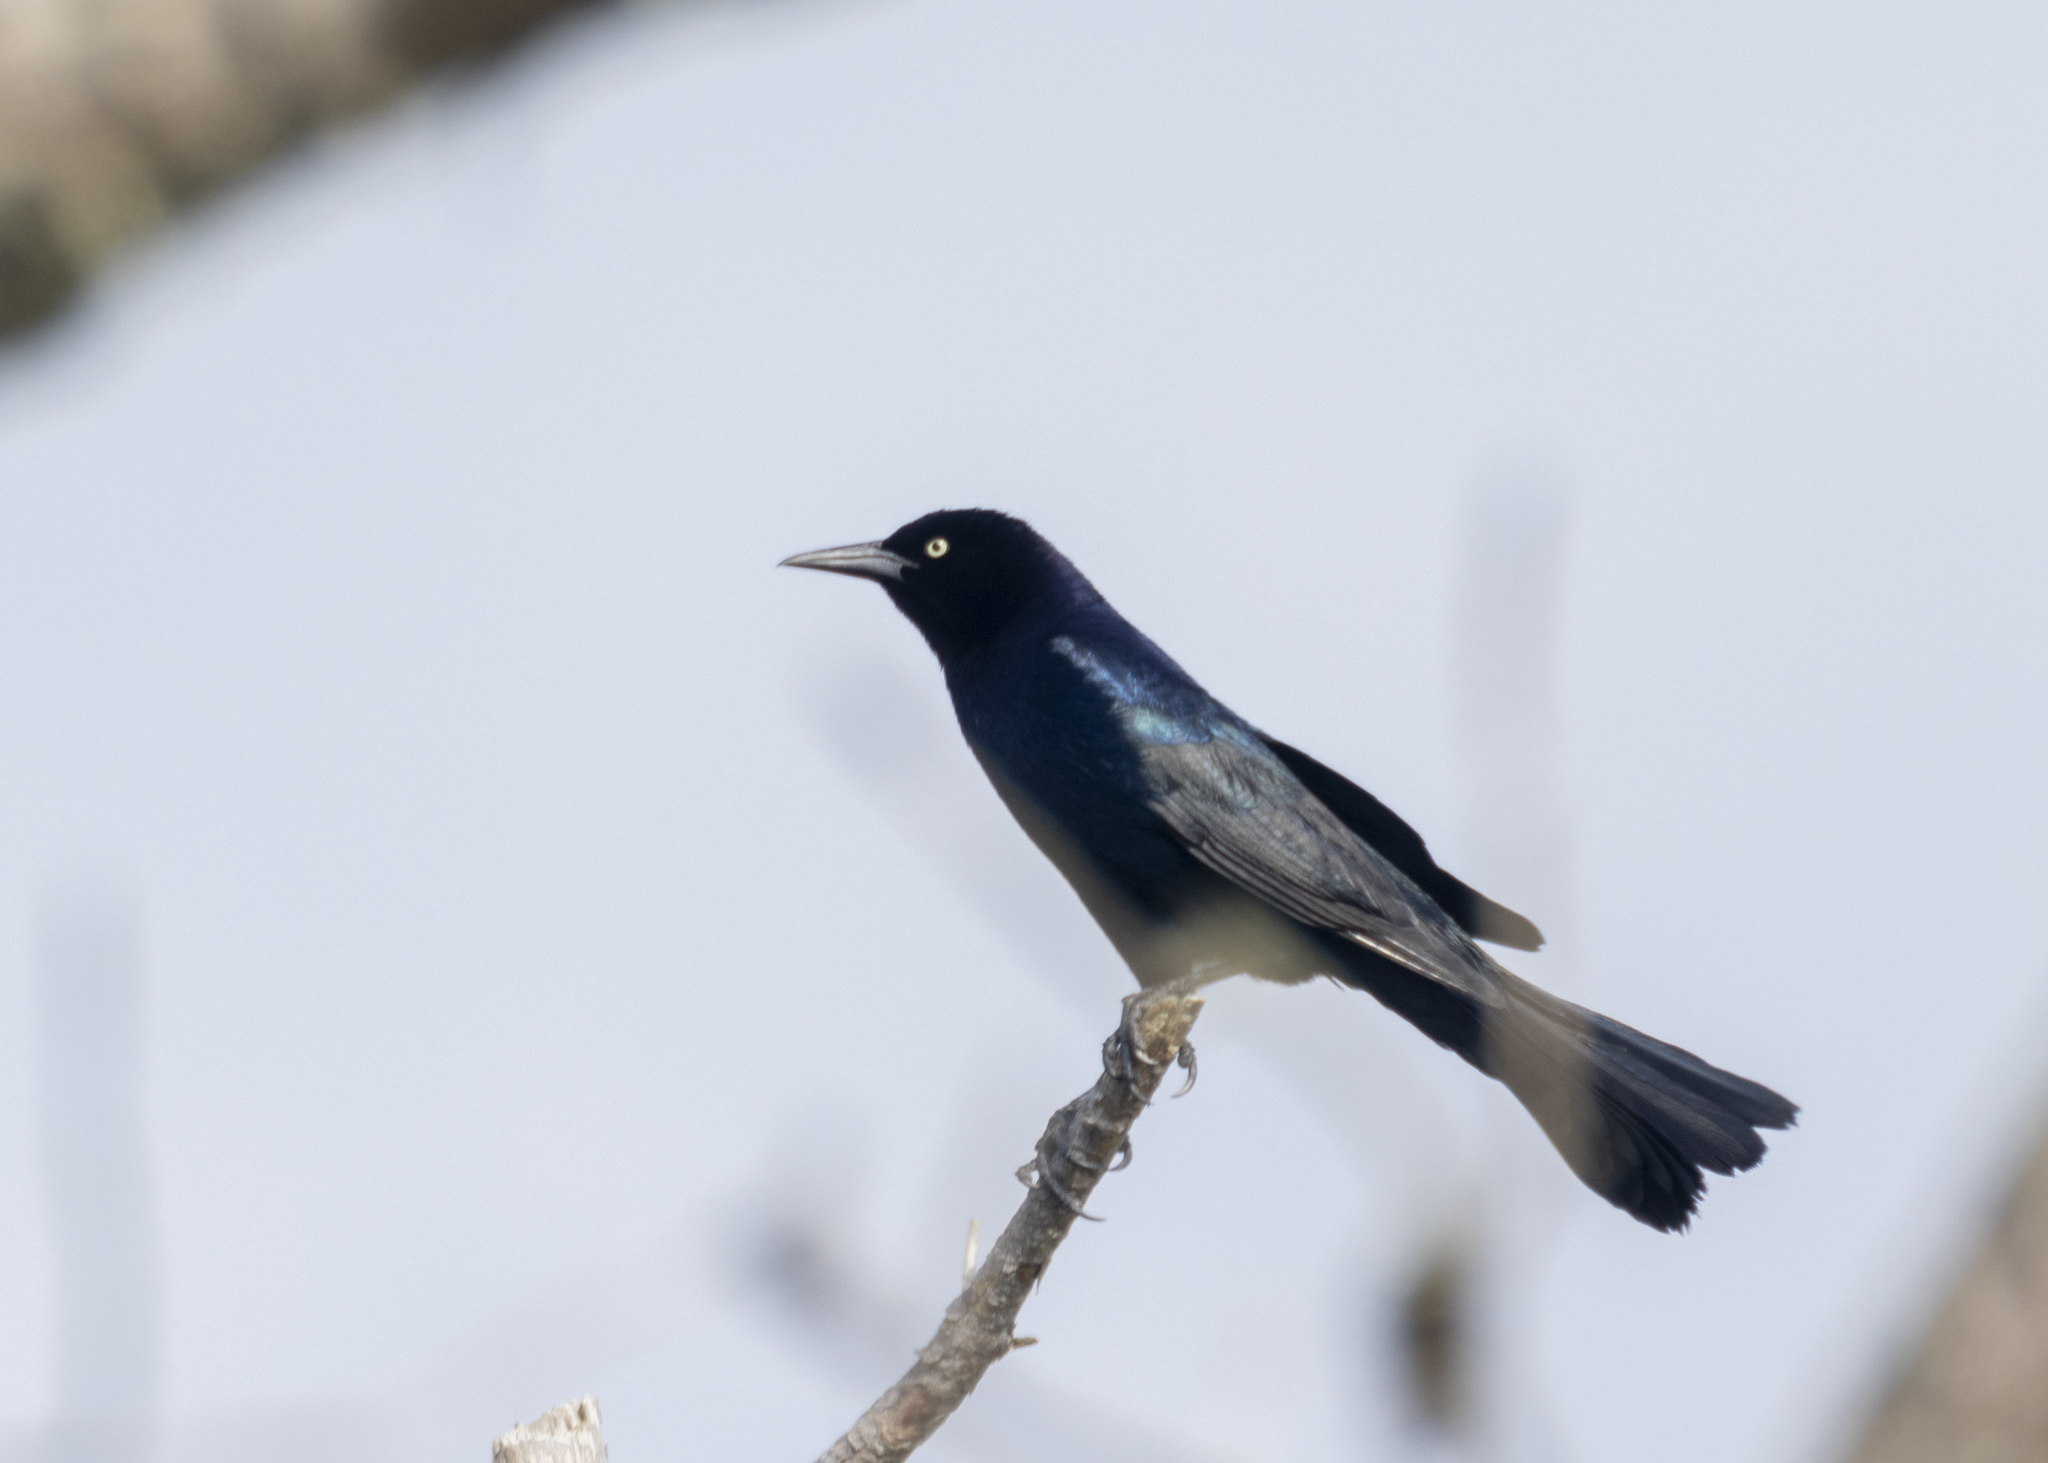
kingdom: Animalia
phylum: Chordata
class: Aves
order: Passeriformes
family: Icteridae
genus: Quiscalus
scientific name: Quiscalus major
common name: Boat-tailed grackle
